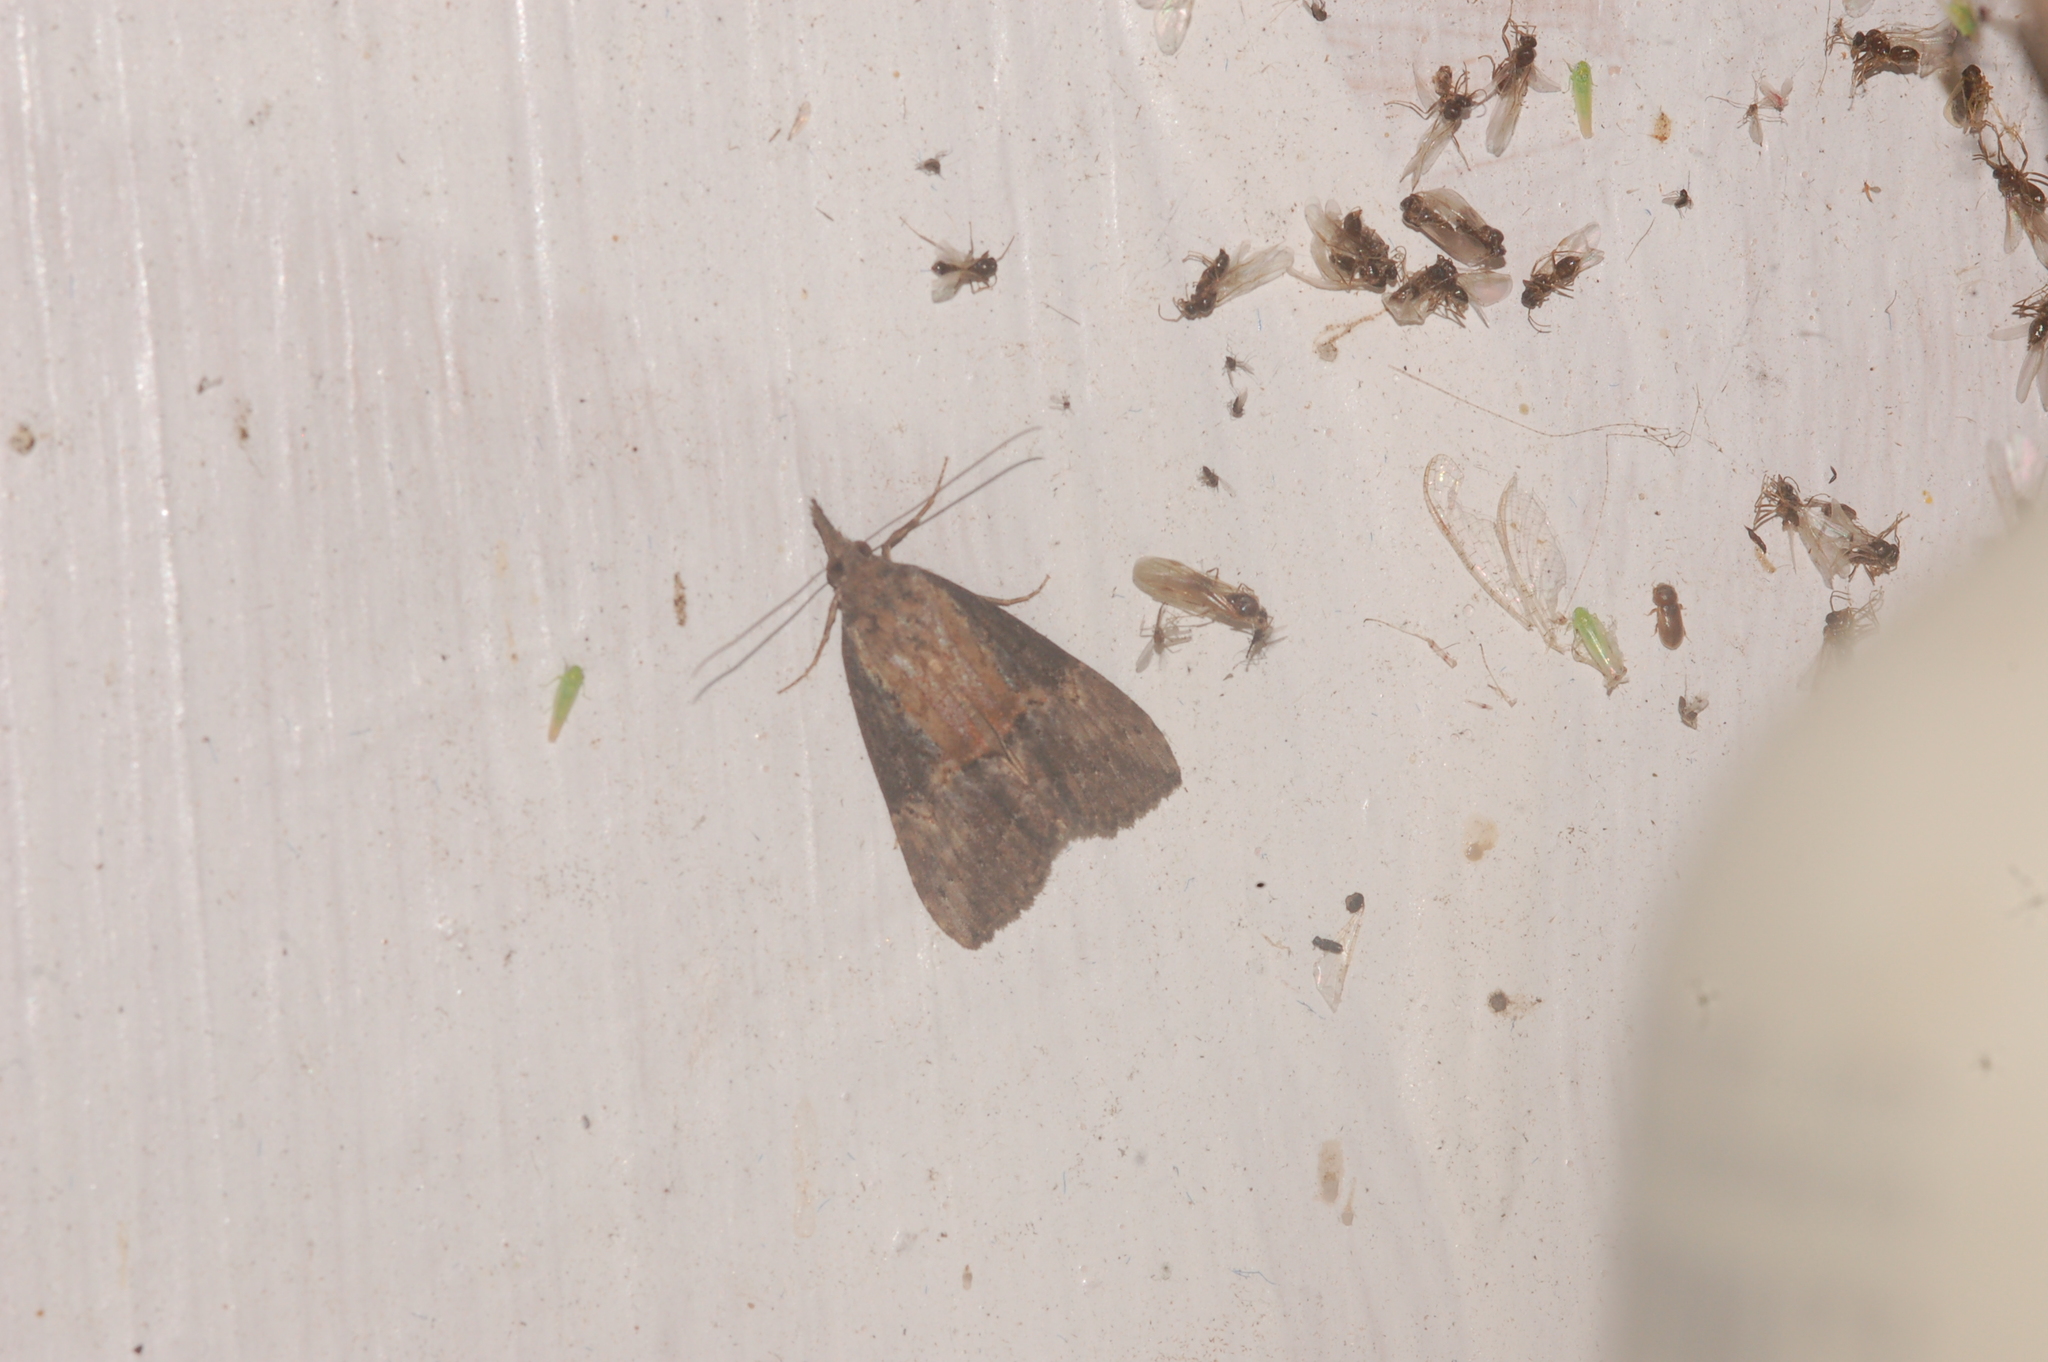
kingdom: Animalia
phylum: Arthropoda
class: Insecta
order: Lepidoptera
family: Erebidae
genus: Hypena
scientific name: Hypena scabra
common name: Green cloverworm
